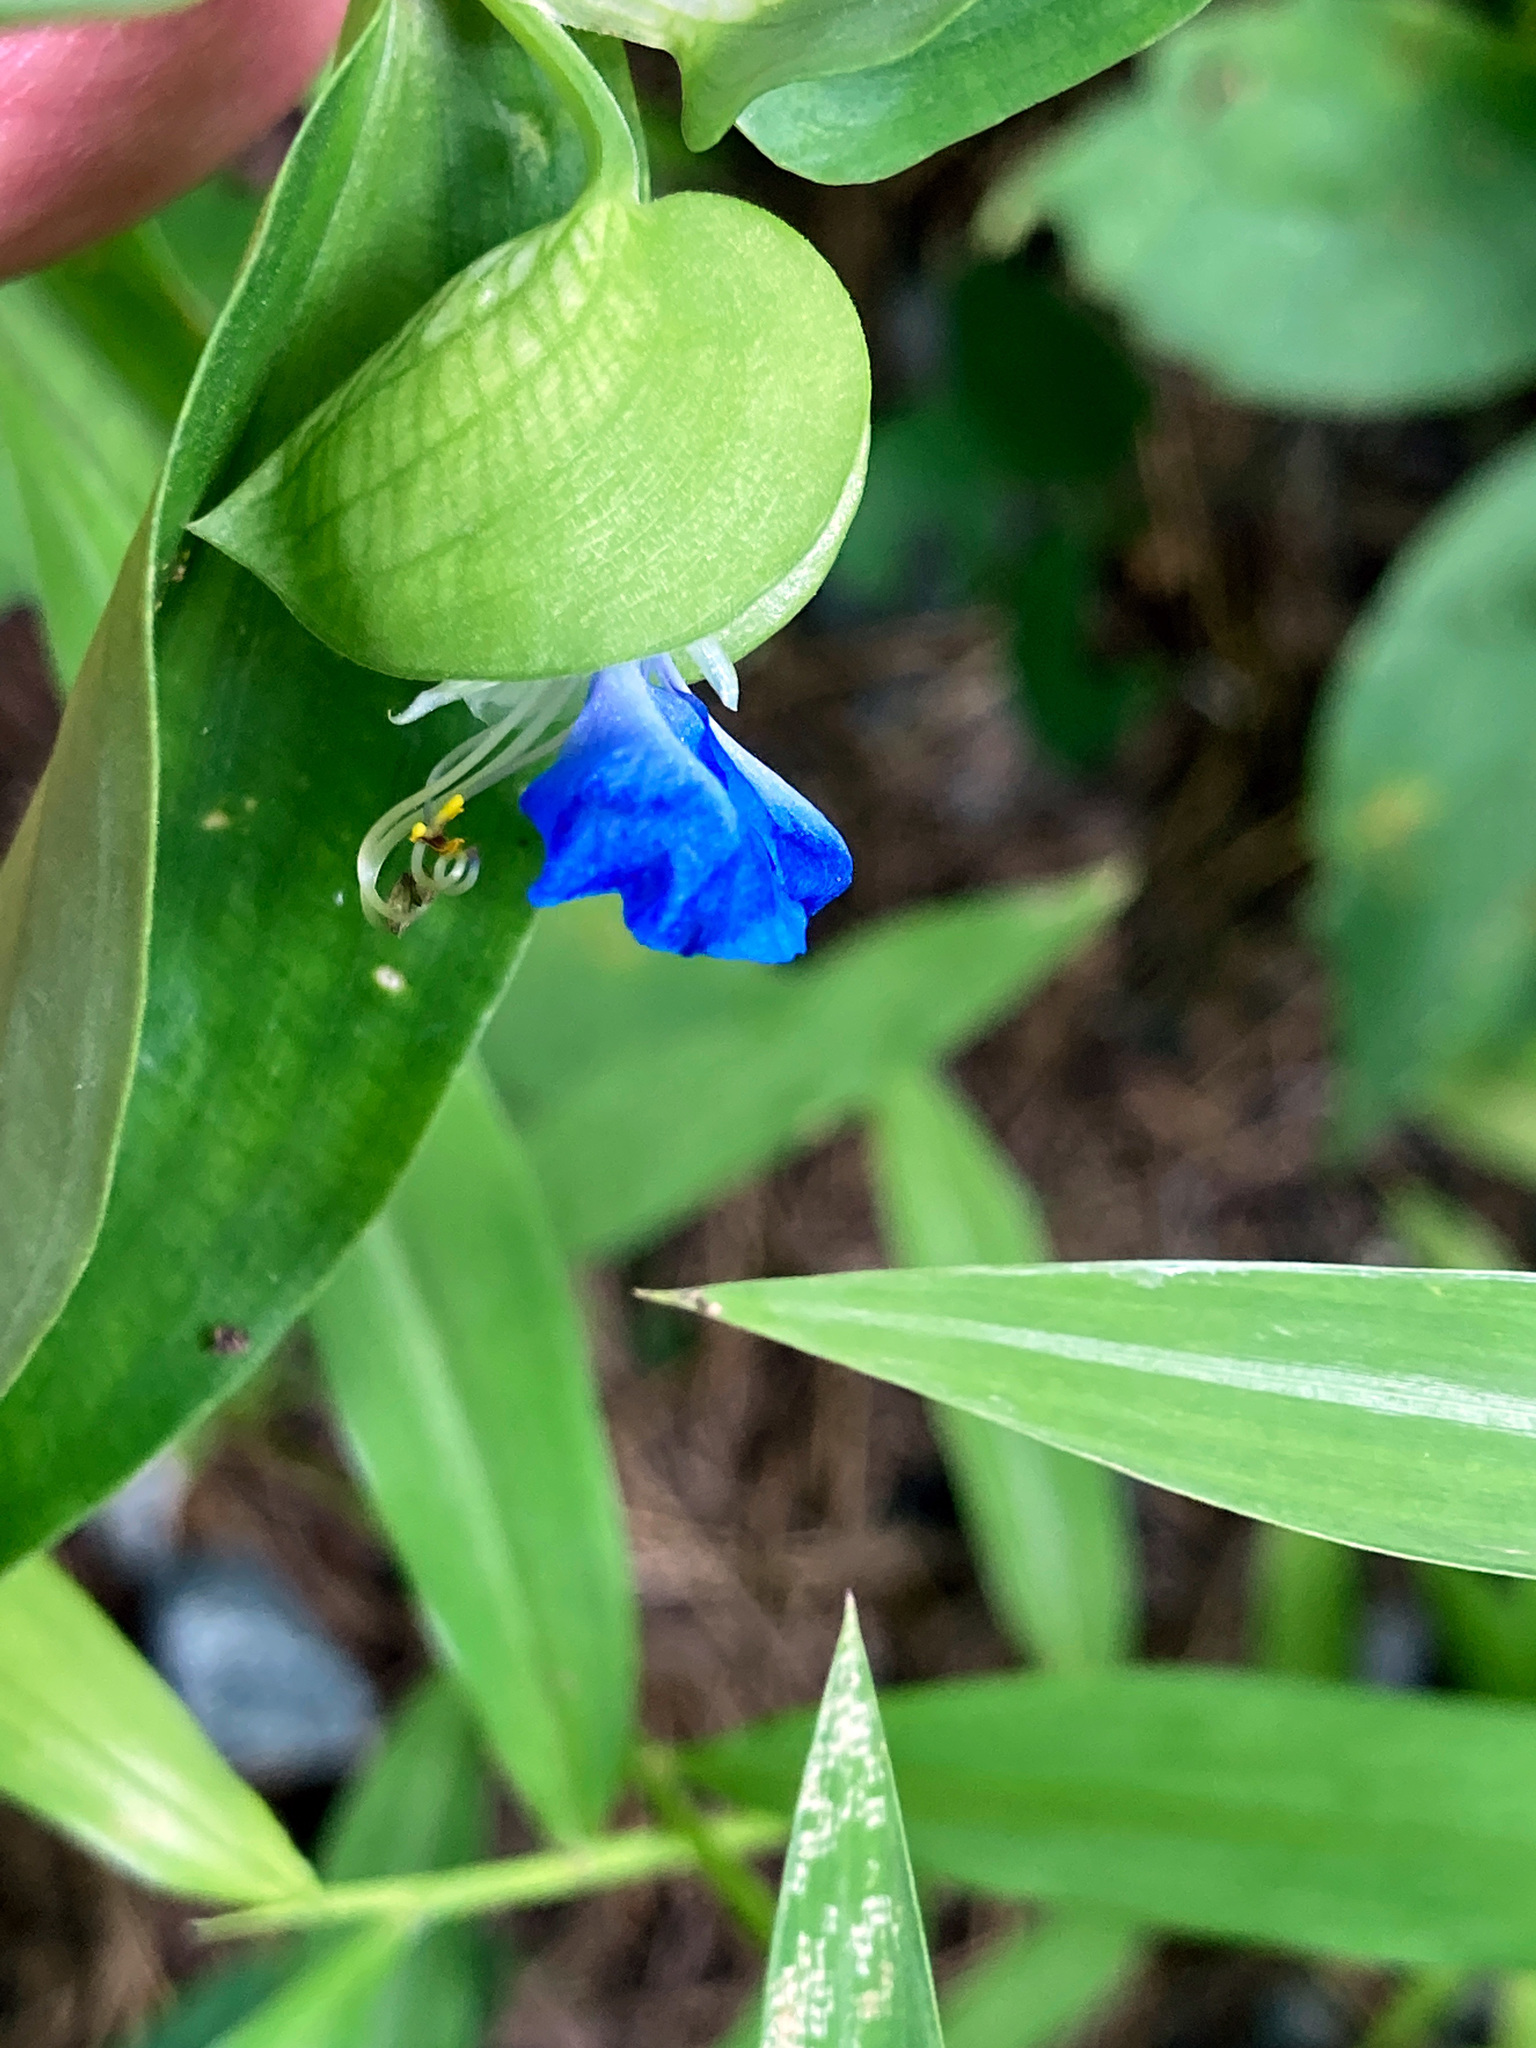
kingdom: Plantae
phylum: Tracheophyta
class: Liliopsida
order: Commelinales
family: Commelinaceae
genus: Commelina
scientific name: Commelina communis
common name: Asiatic dayflower
